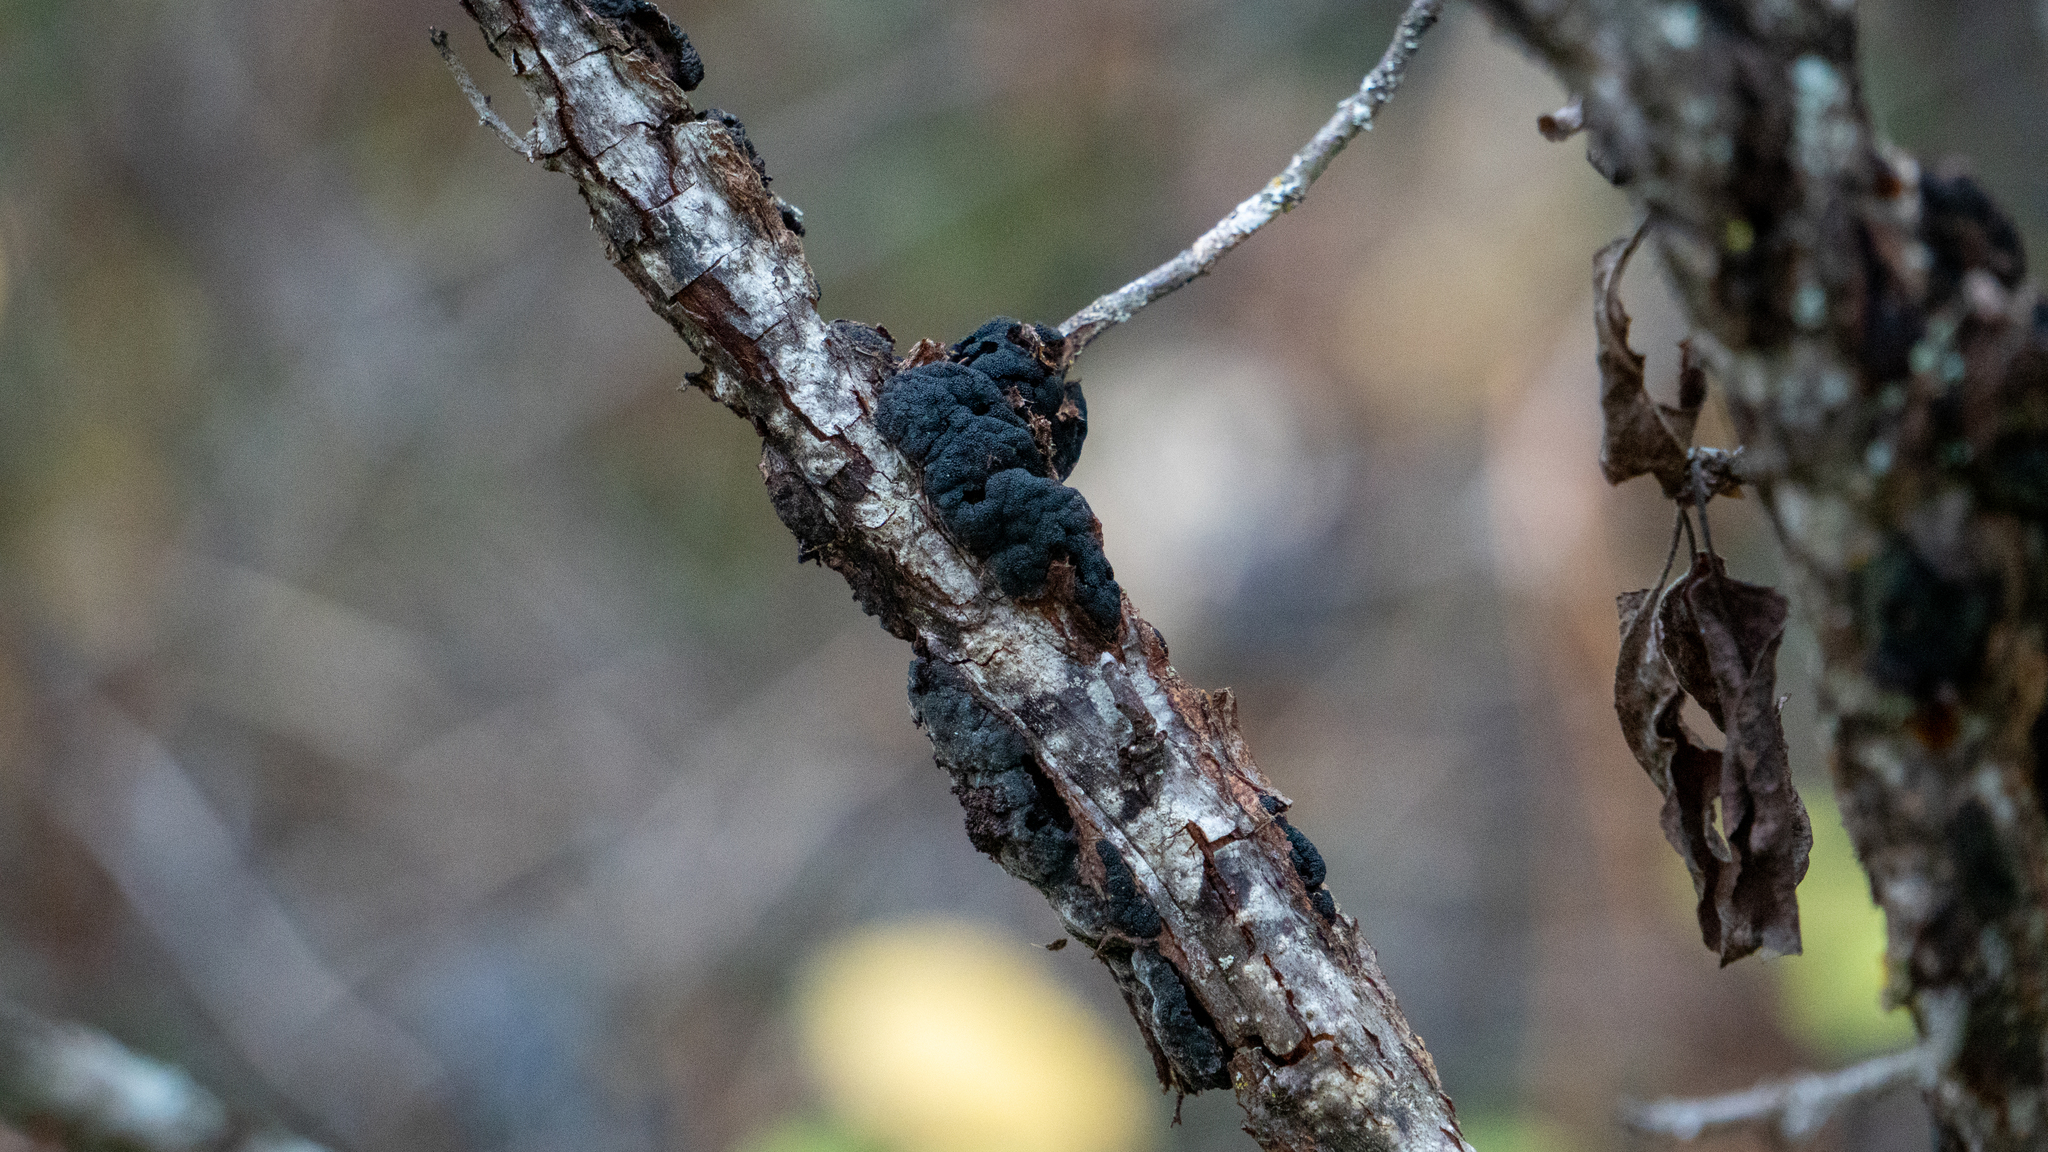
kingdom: Fungi
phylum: Ascomycota
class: Dothideomycetes
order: Venturiales
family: Venturiaceae
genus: Apiosporina
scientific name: Apiosporina morbosa
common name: Black knot
